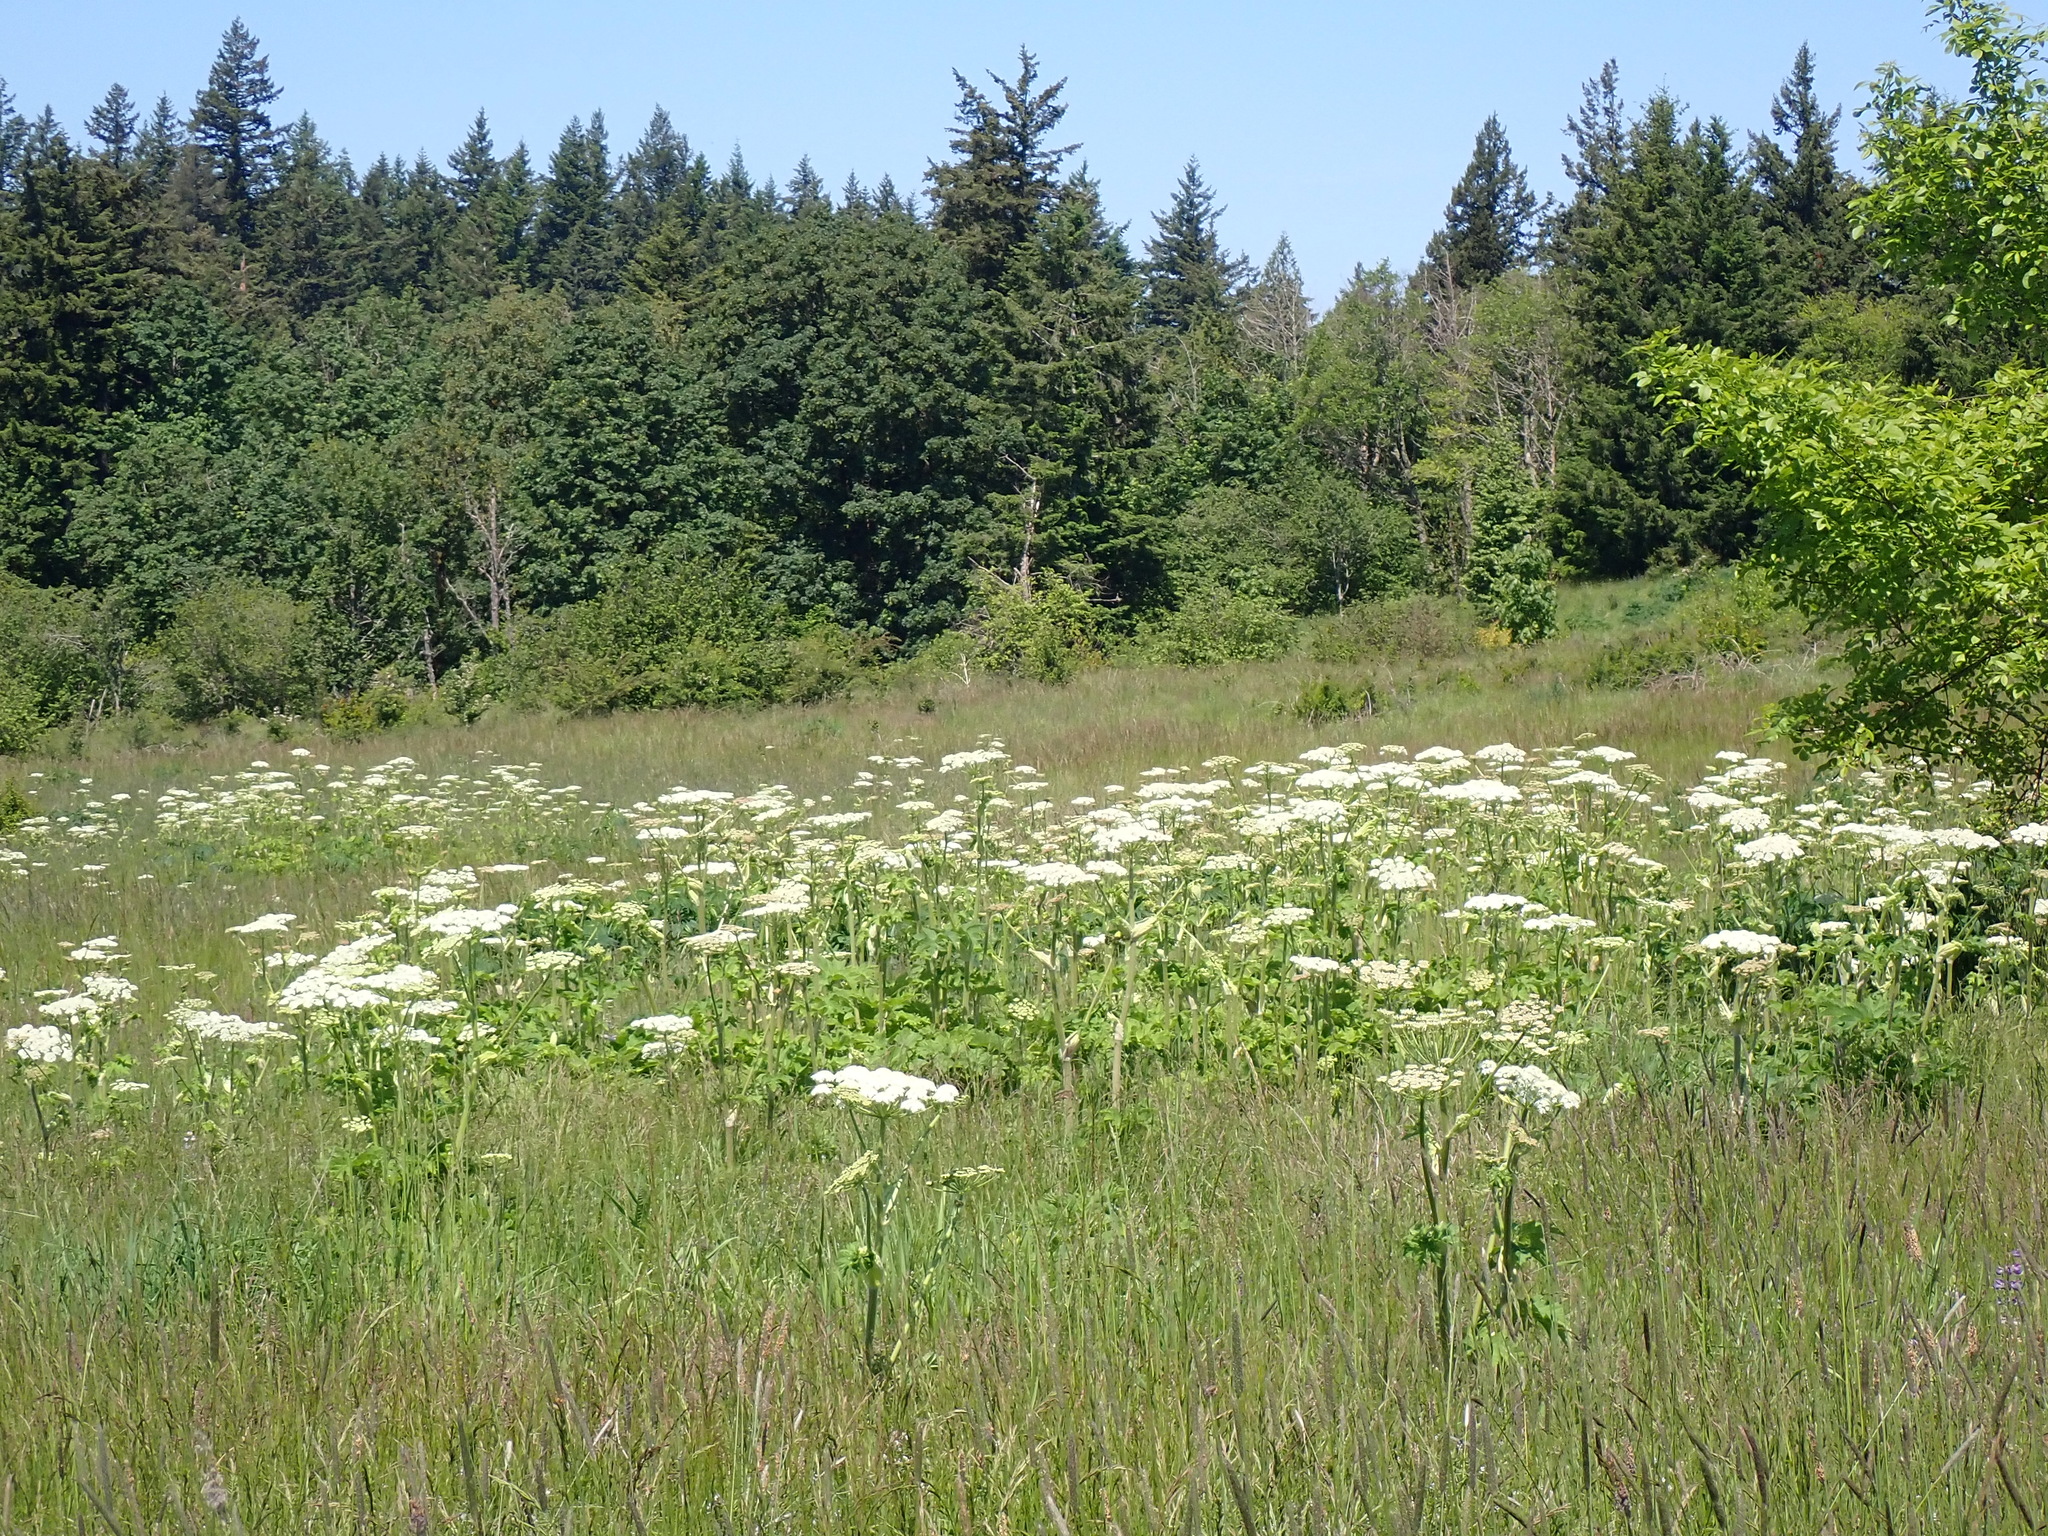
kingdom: Plantae
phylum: Tracheophyta
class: Magnoliopsida
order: Apiales
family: Apiaceae
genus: Heracleum
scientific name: Heracleum maximum
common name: American cow parsnip
